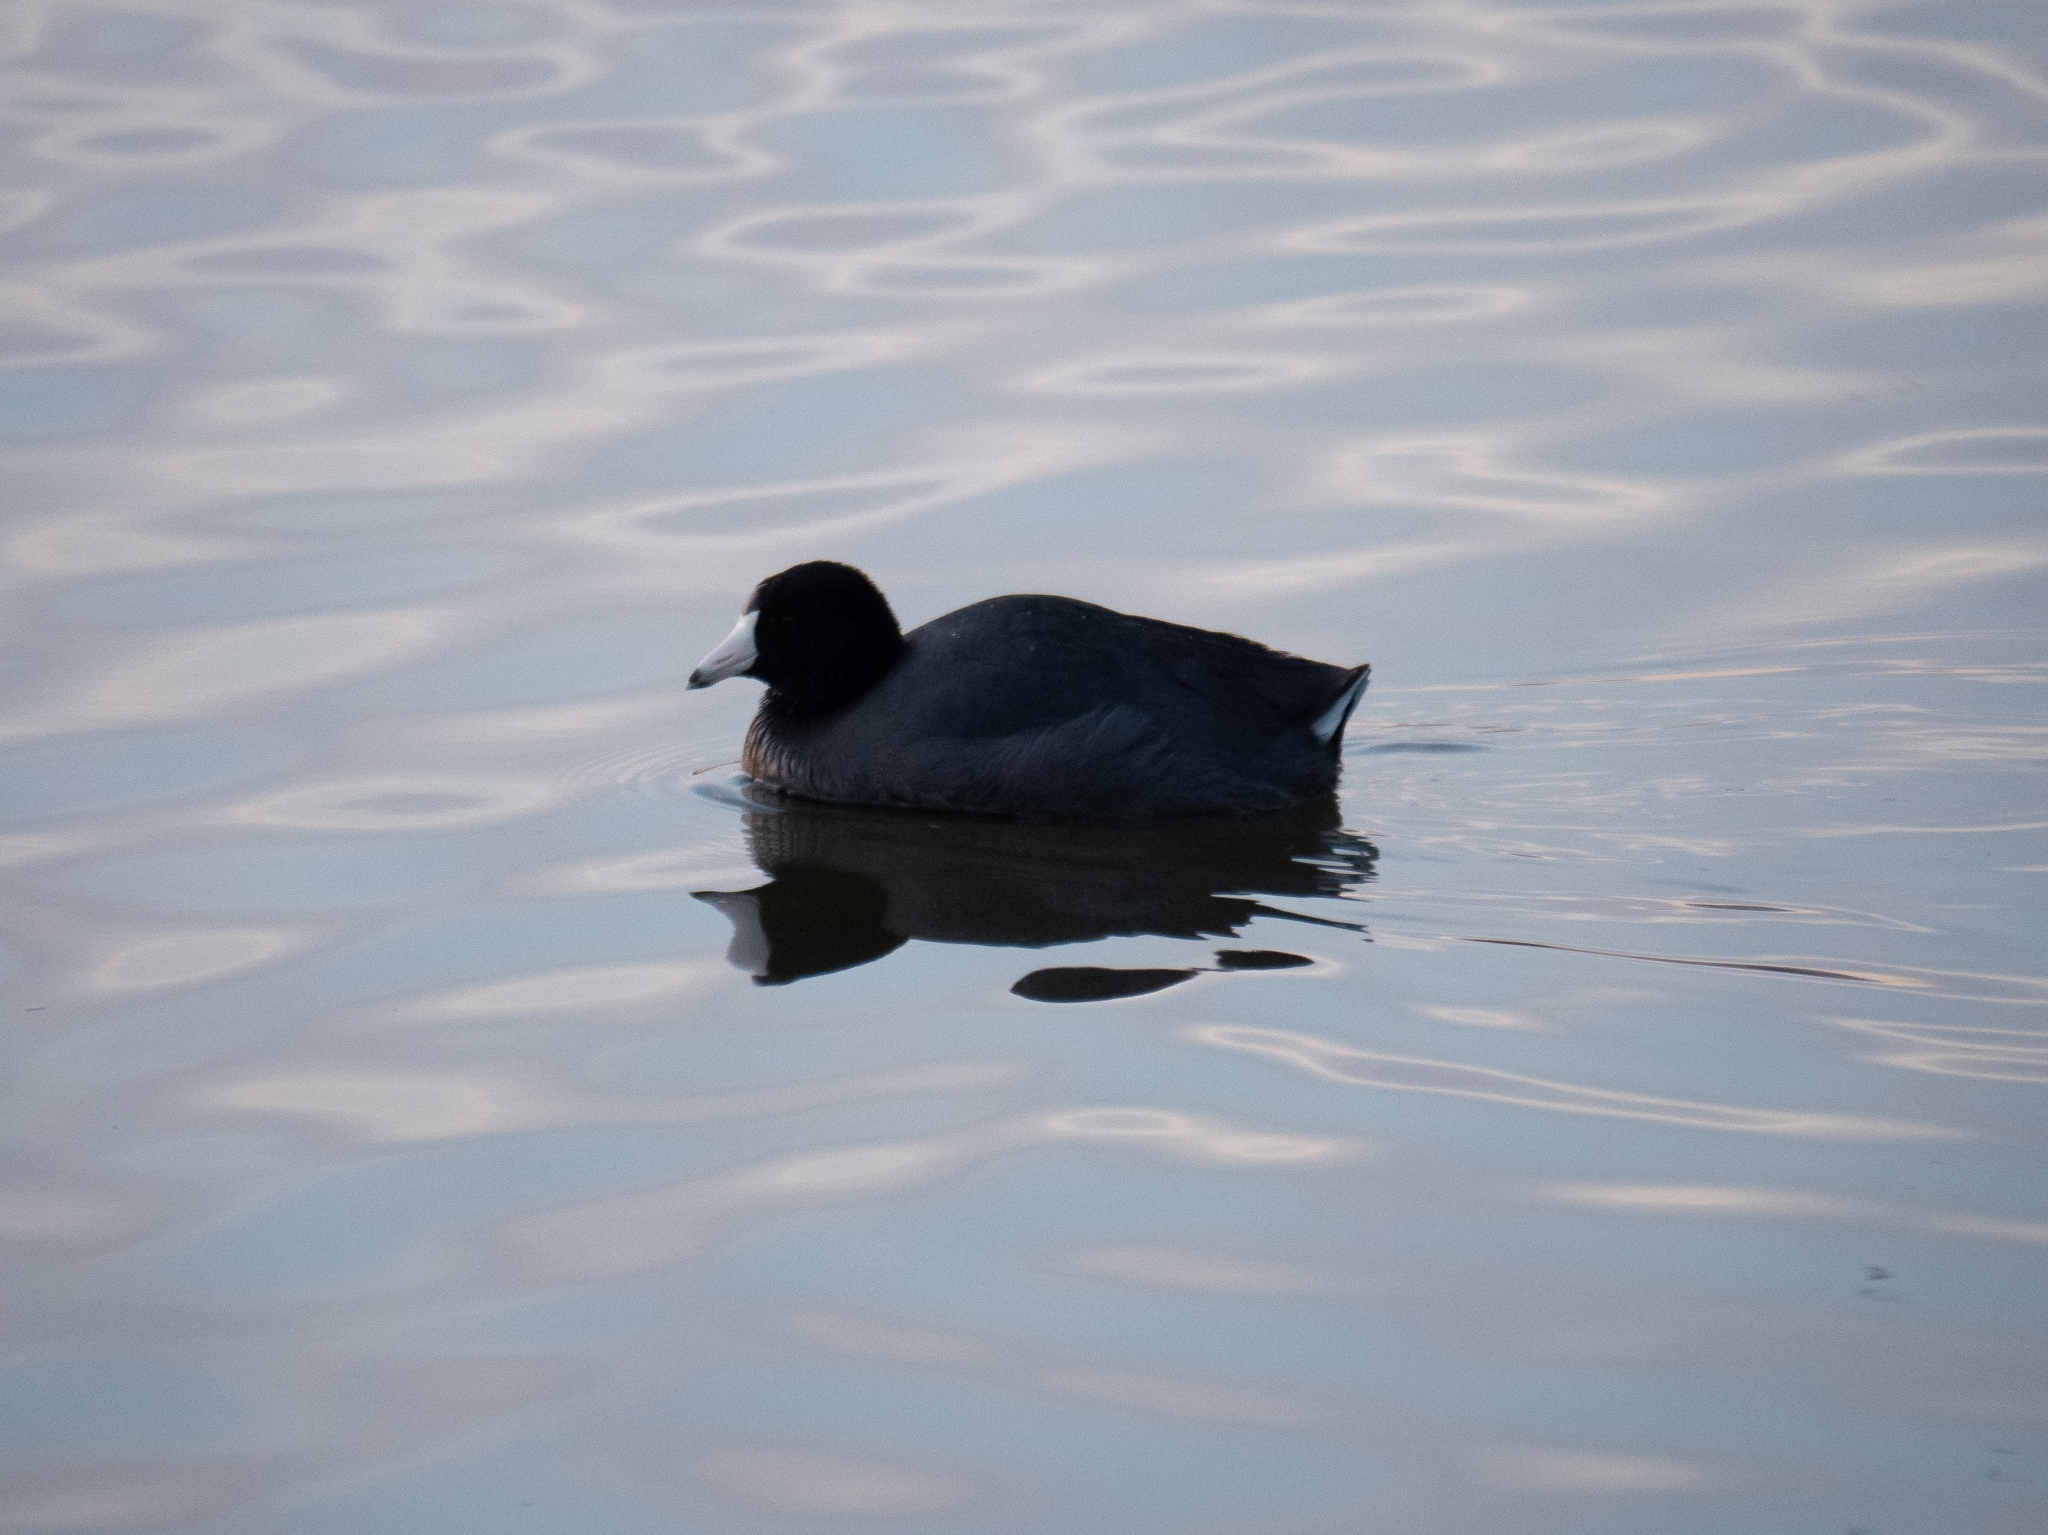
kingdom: Animalia
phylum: Chordata
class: Aves
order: Gruiformes
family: Rallidae
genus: Fulica
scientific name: Fulica americana
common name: American coot
